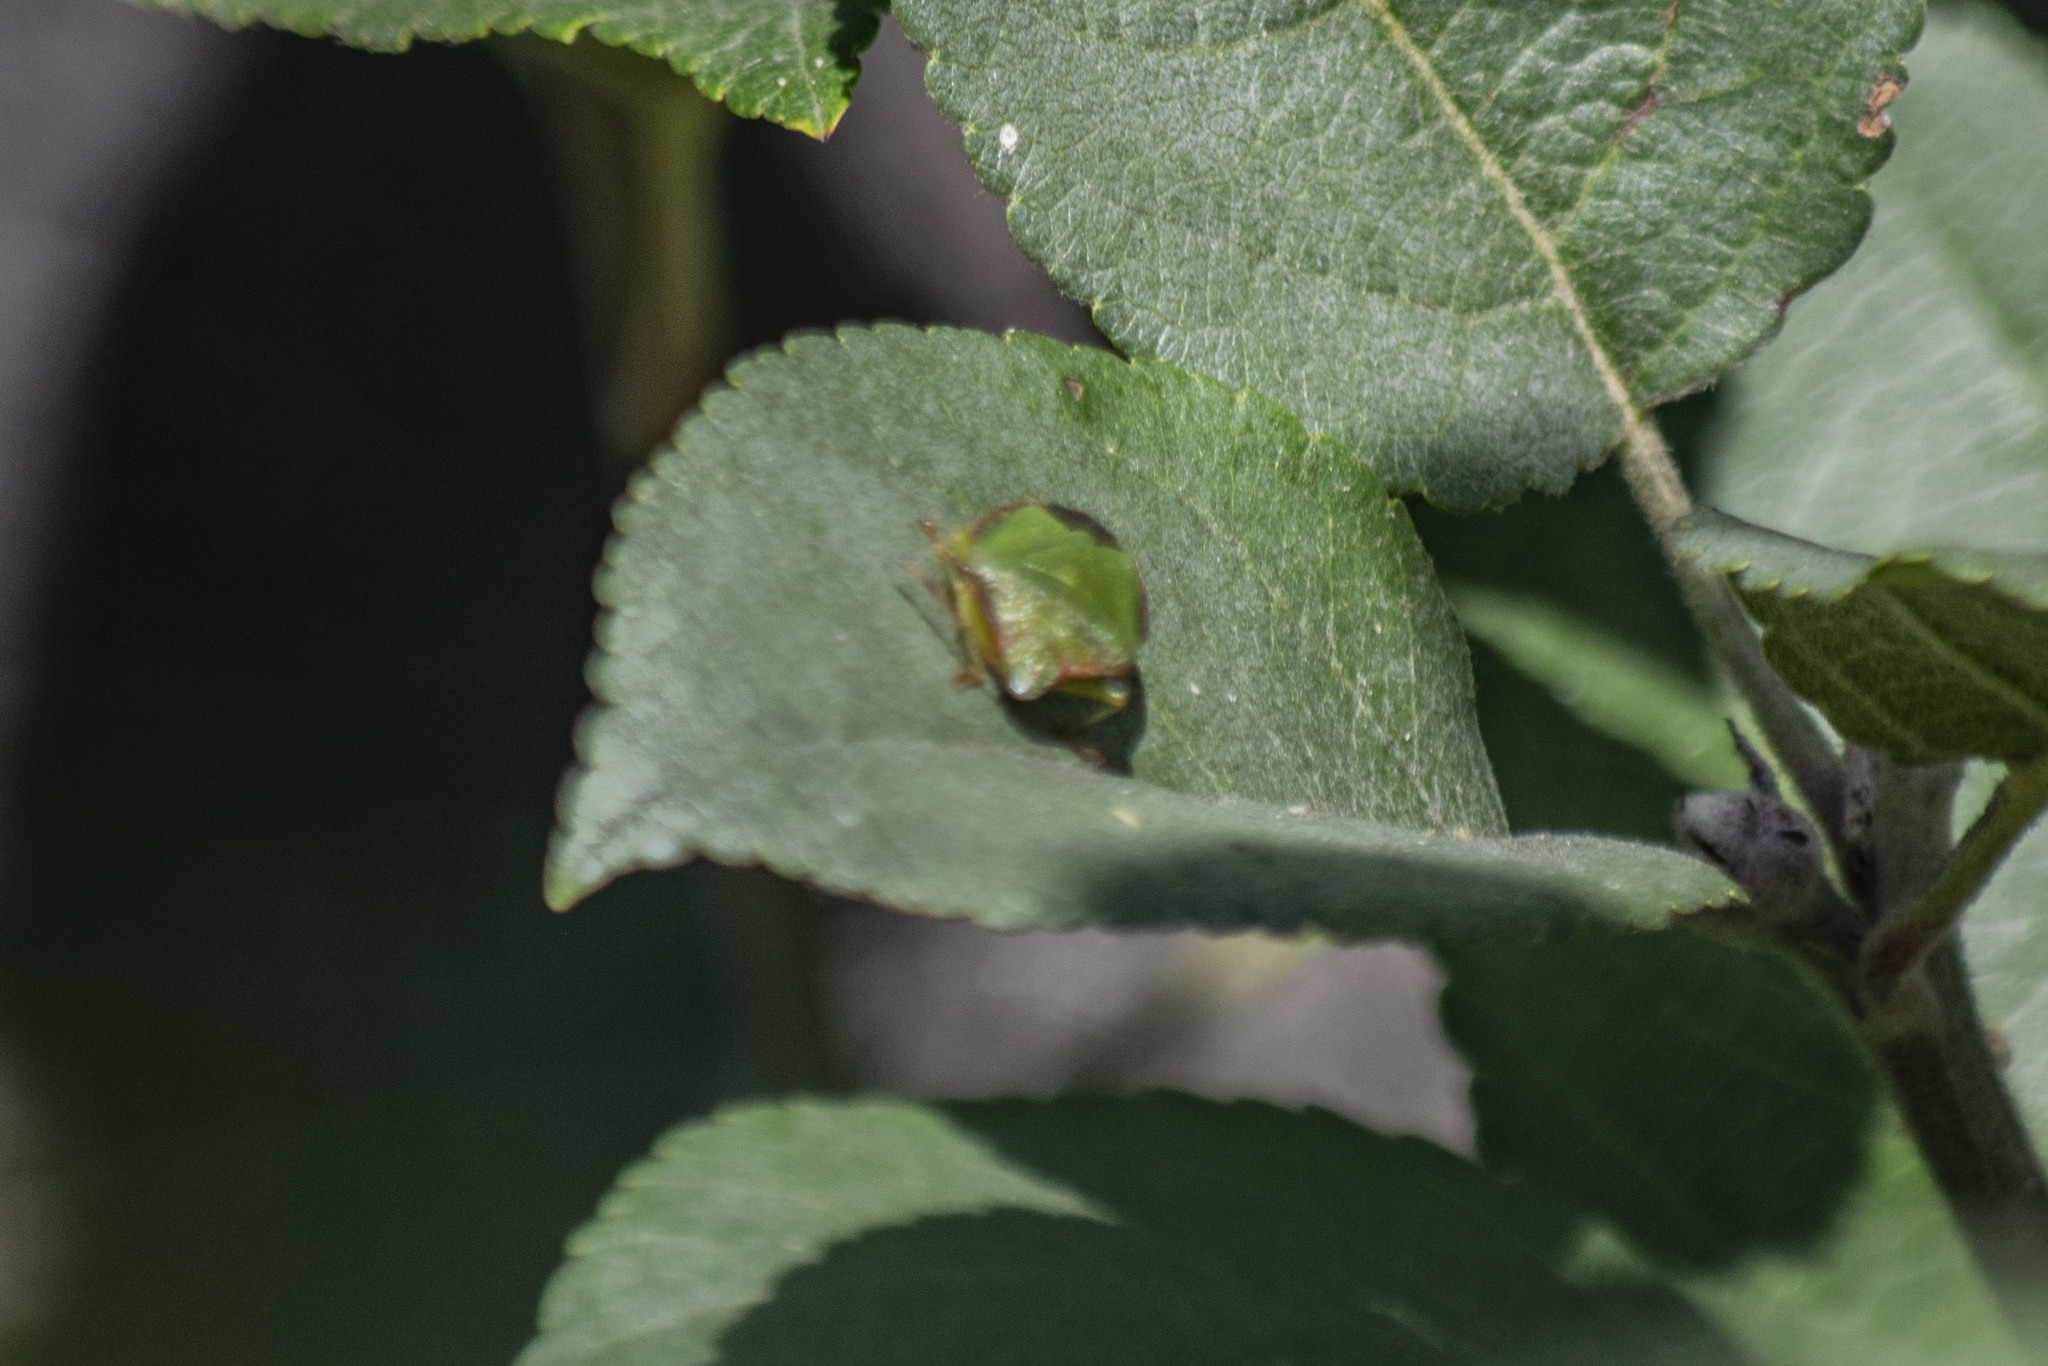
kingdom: Animalia
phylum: Arthropoda
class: Insecta
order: Hemiptera
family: Pentatomidae
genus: Palomena
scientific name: Palomena prasina
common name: Green shieldbug
